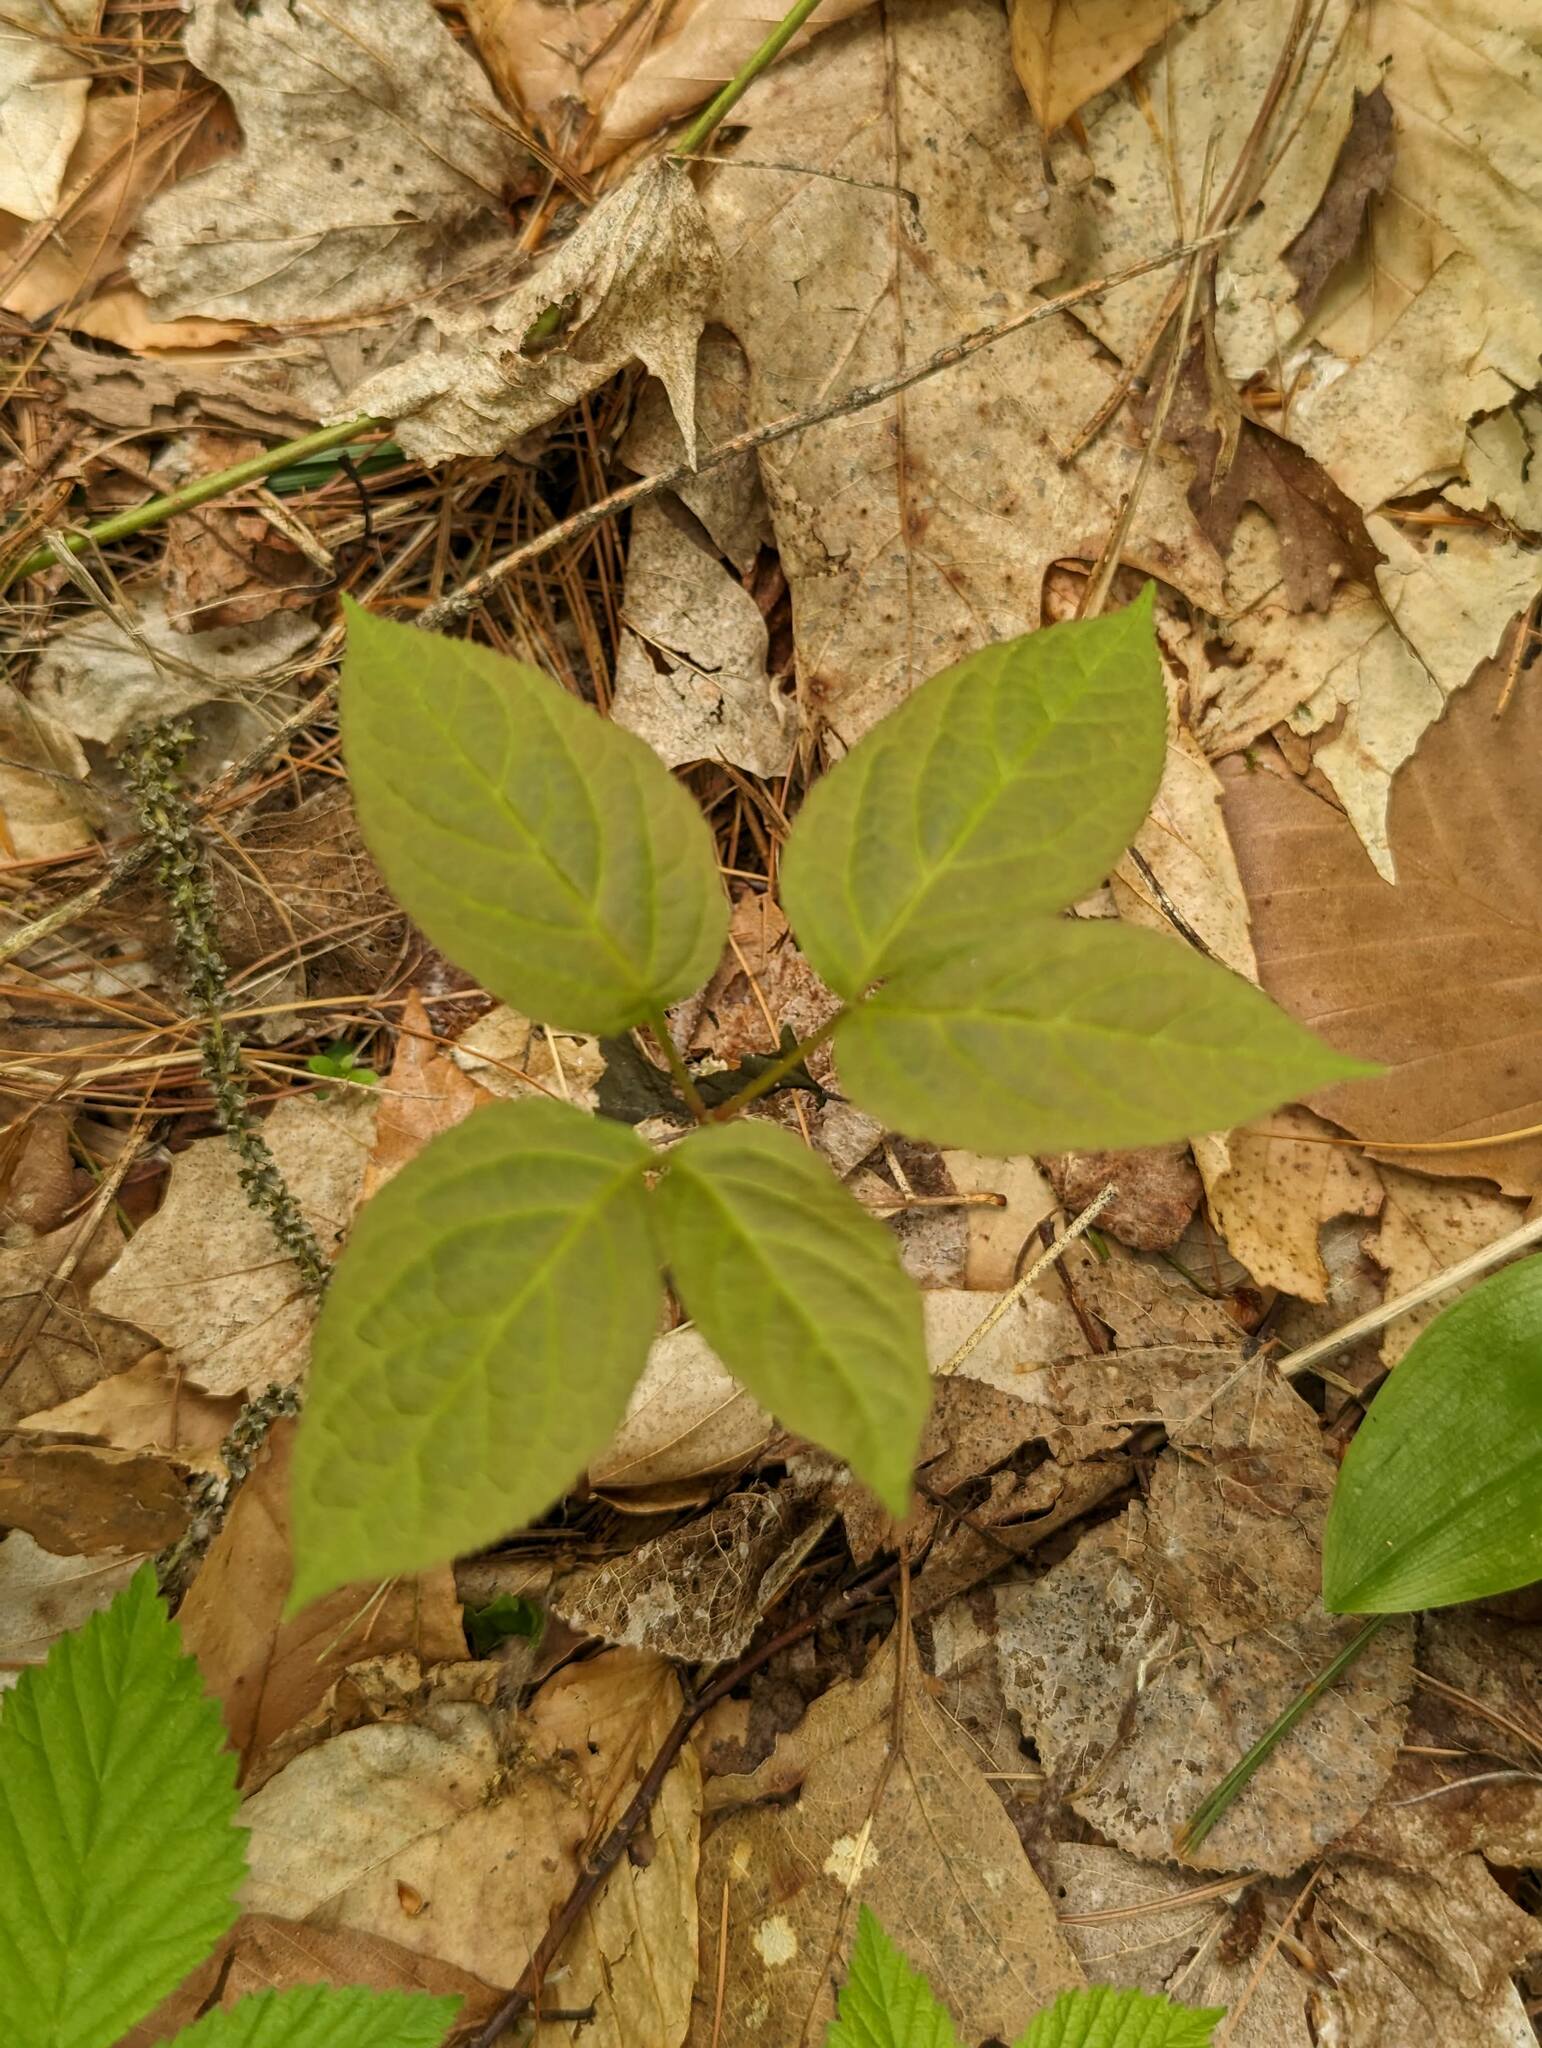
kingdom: Plantae
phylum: Tracheophyta
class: Magnoliopsida
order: Apiales
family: Araliaceae
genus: Aralia
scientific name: Aralia nudicaulis
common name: Wild sarsaparilla
